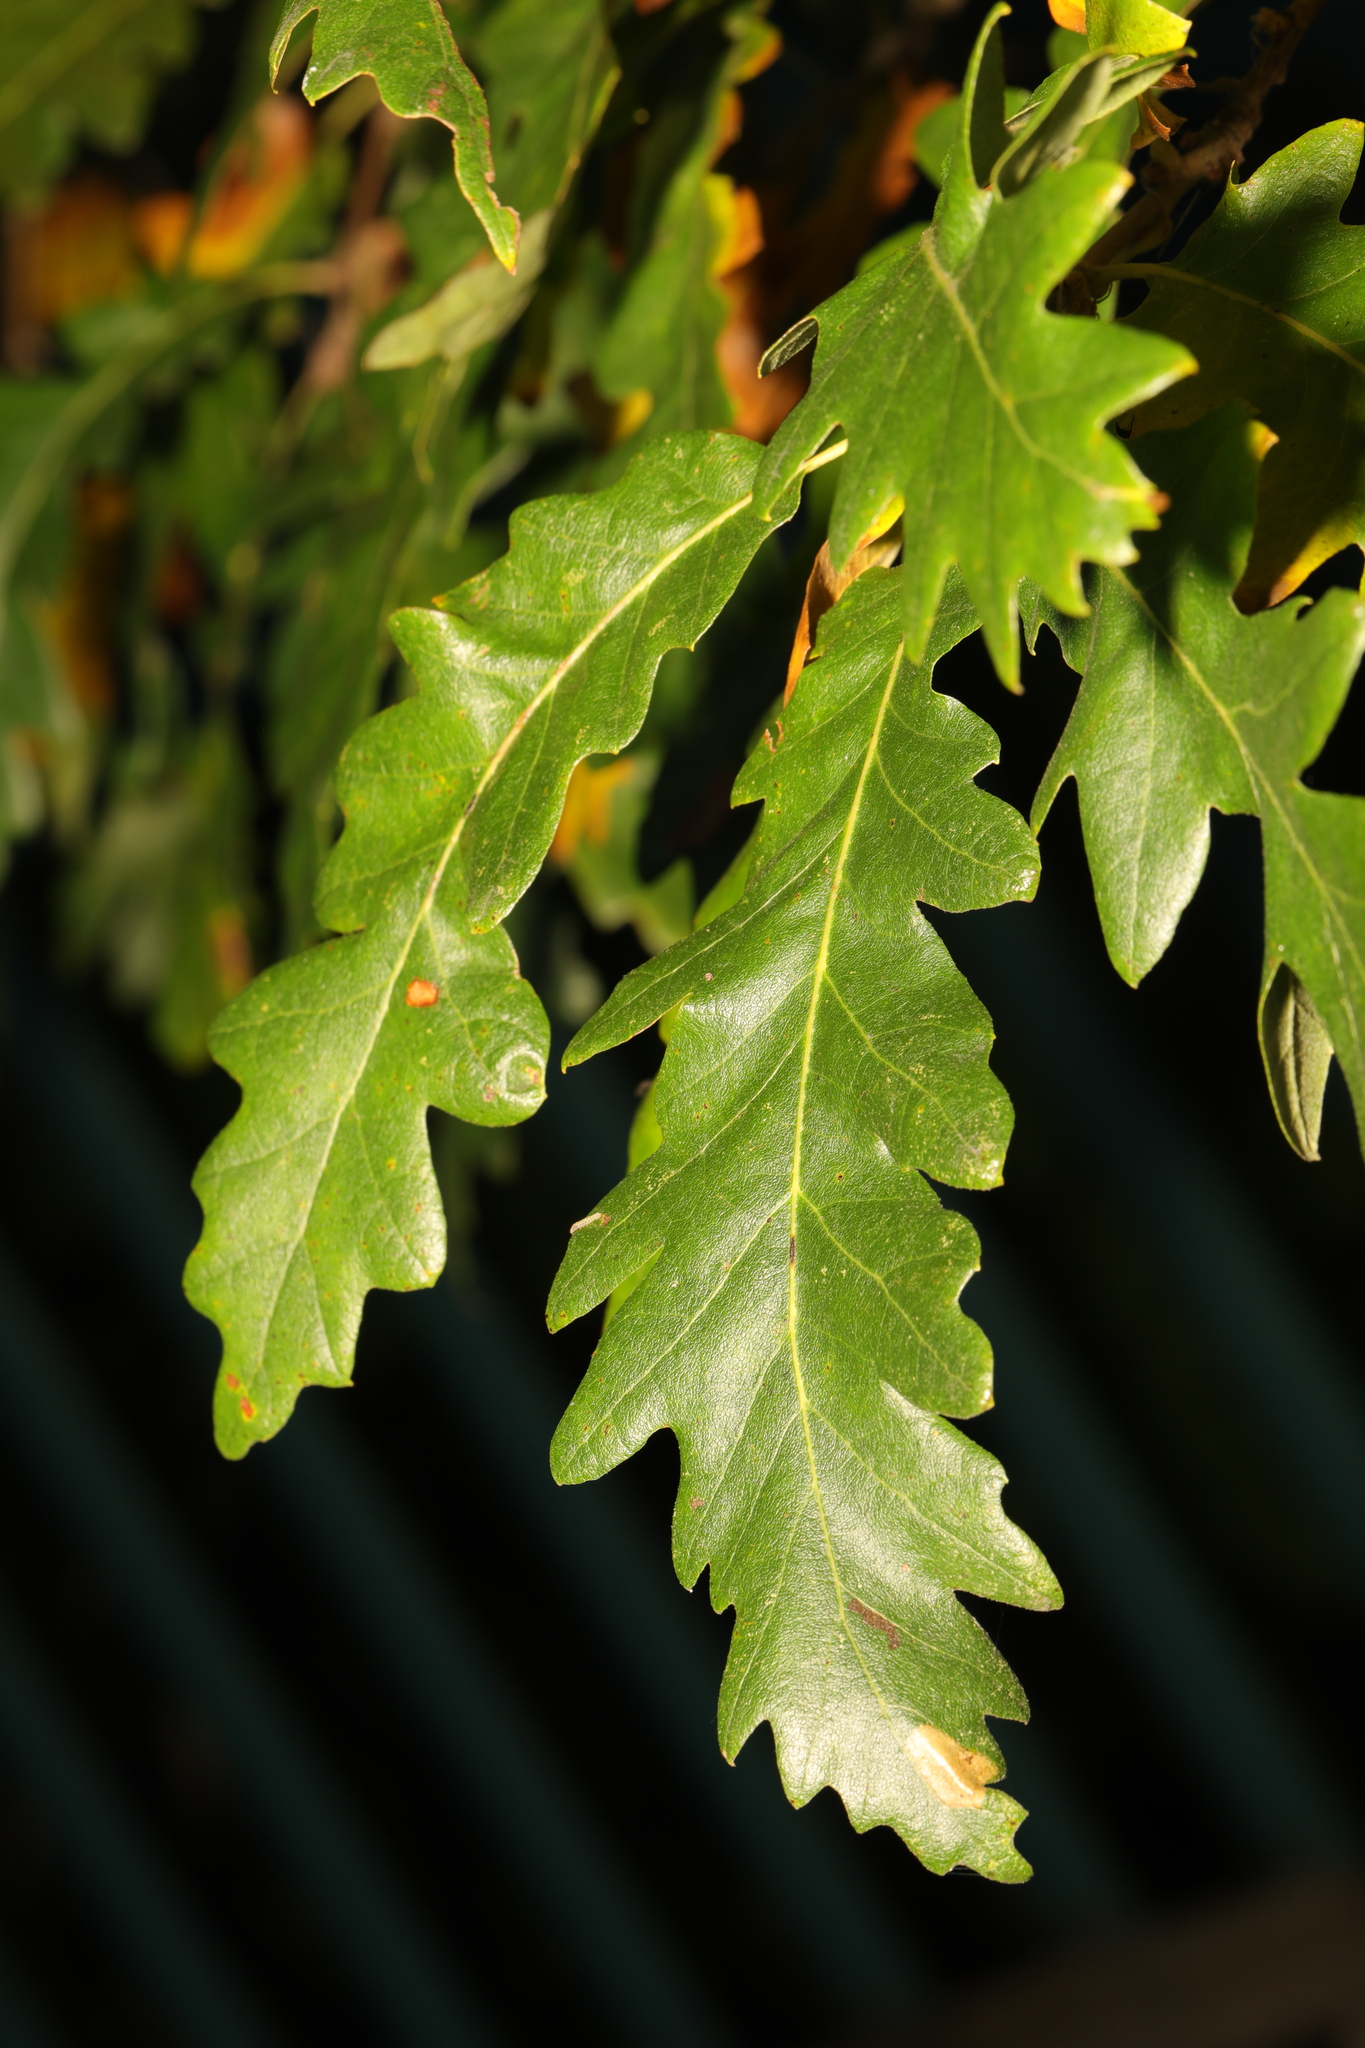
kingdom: Plantae
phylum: Tracheophyta
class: Magnoliopsida
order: Fagales
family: Fagaceae
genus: Quercus
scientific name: Quercus cerris
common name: Turkey oak
